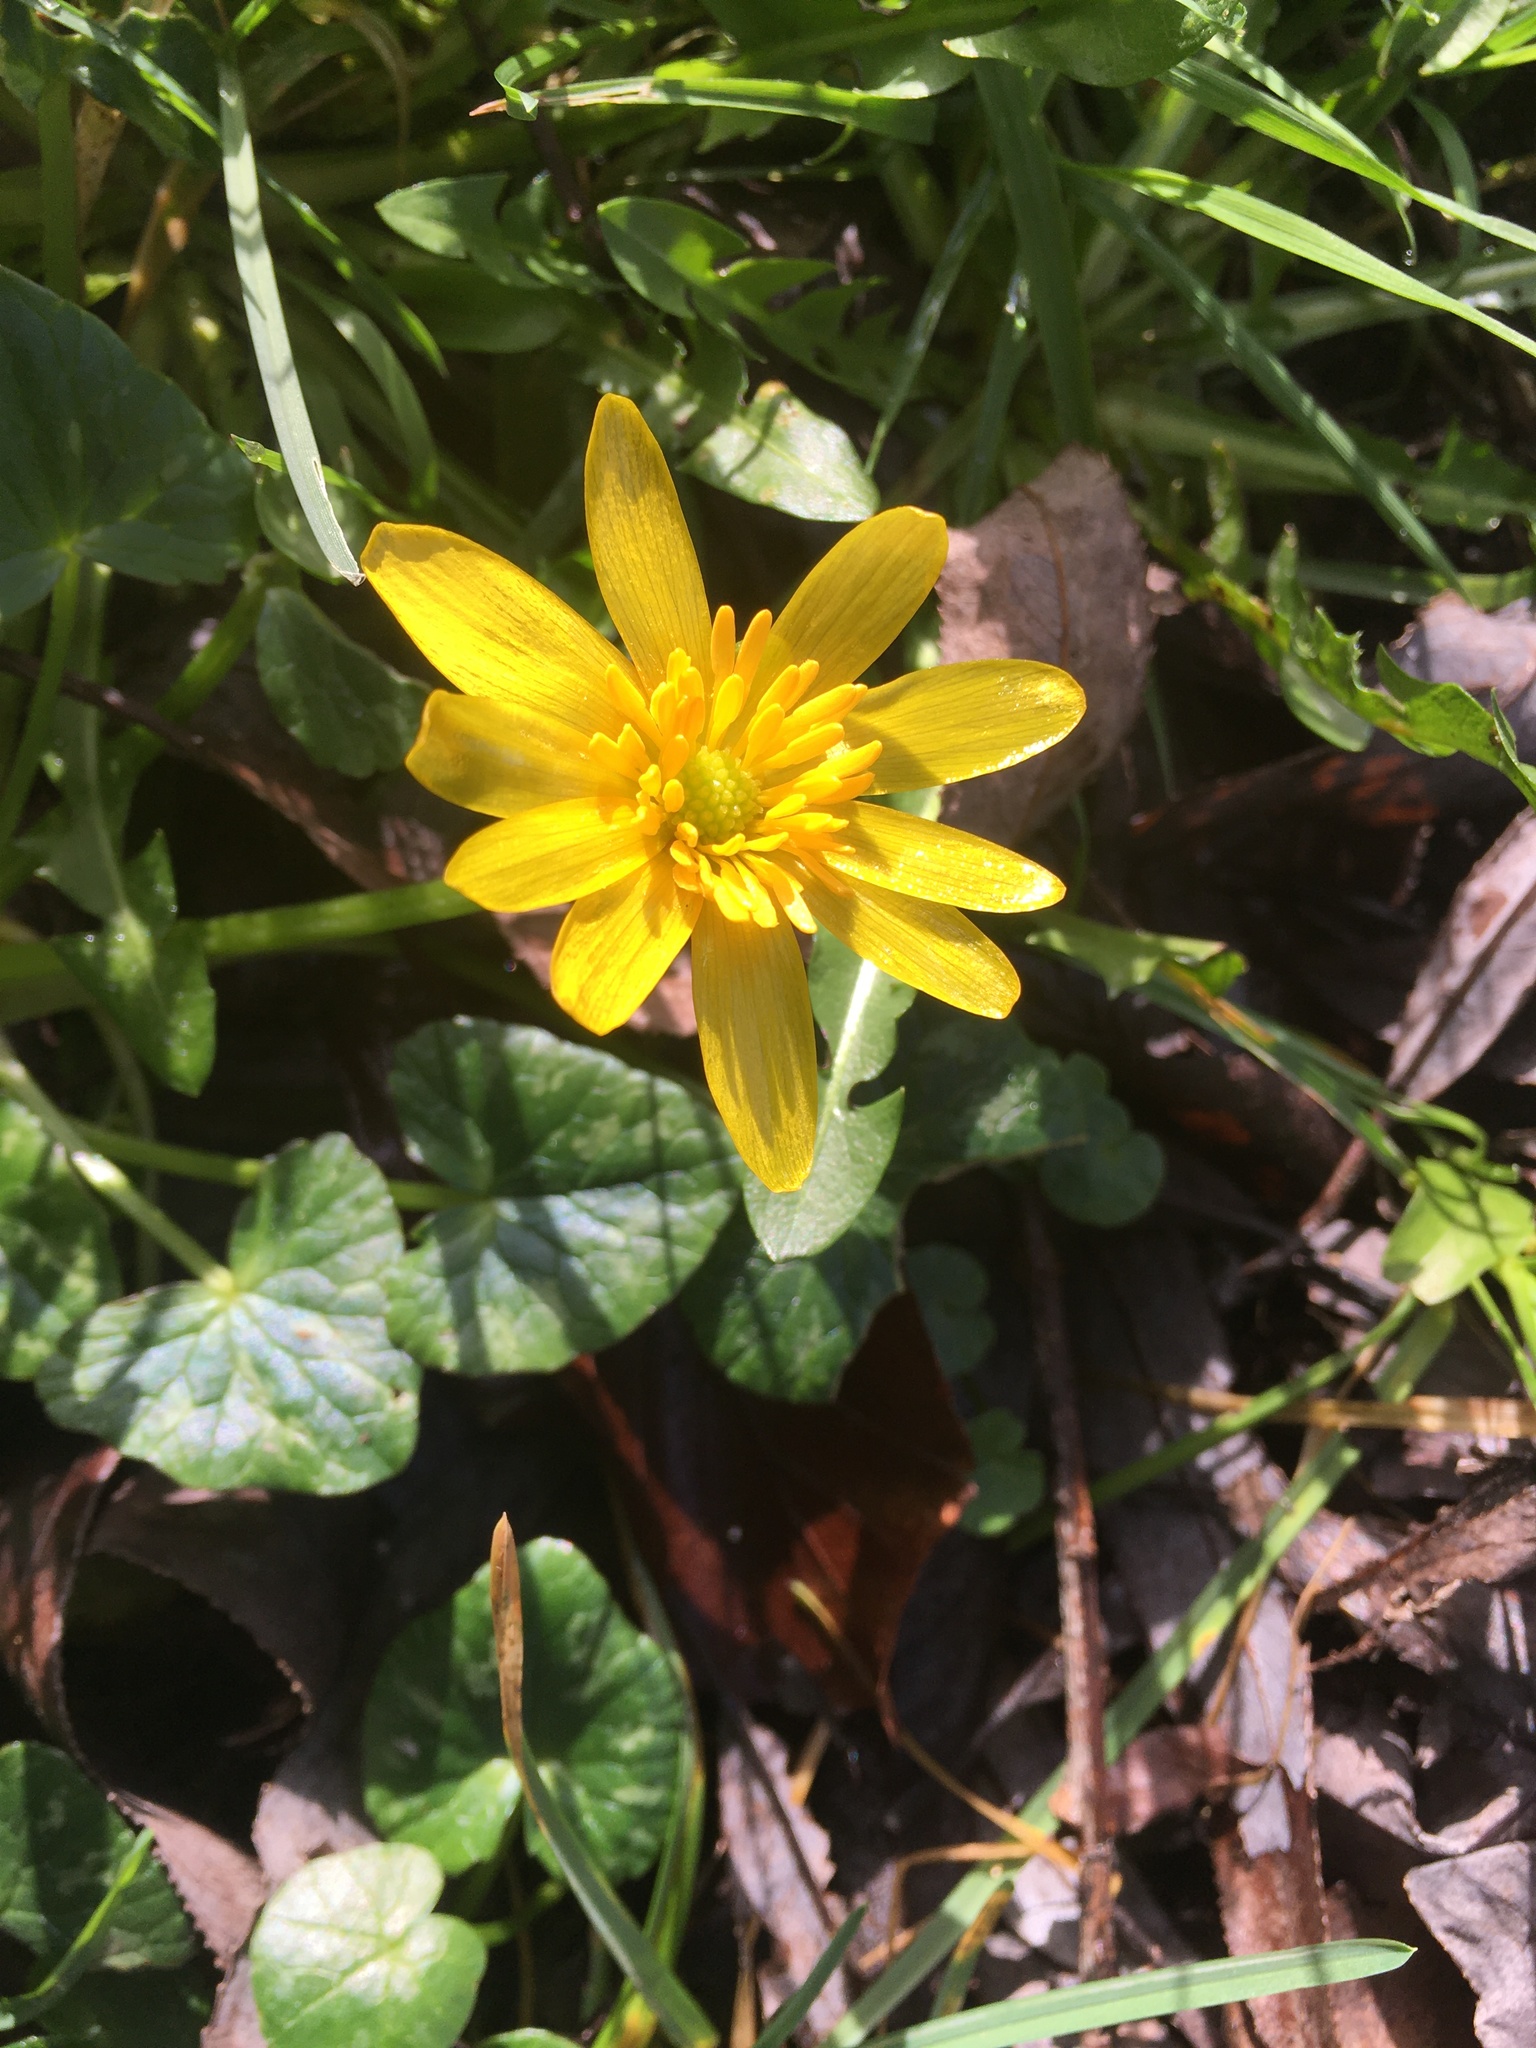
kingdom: Plantae
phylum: Tracheophyta
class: Magnoliopsida
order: Ranunculales
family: Ranunculaceae
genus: Ficaria
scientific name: Ficaria verna
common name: Lesser celandine
